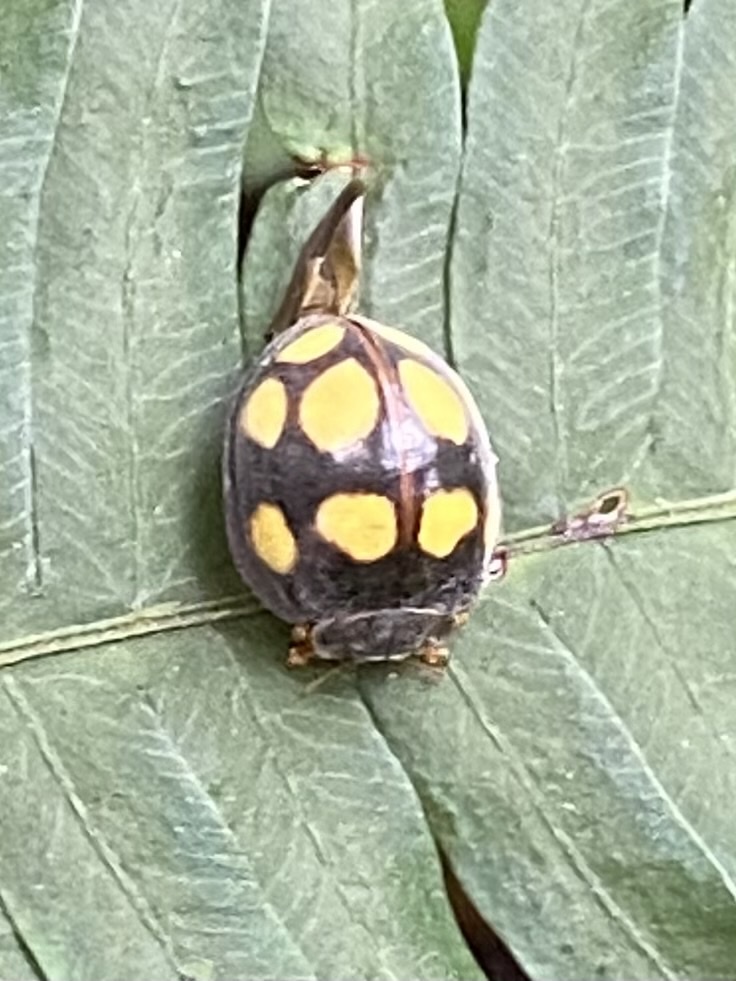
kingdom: Animalia
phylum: Arthropoda
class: Insecta
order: Coleoptera
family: Coccinellidae
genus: Epilachna
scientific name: Epilachna
